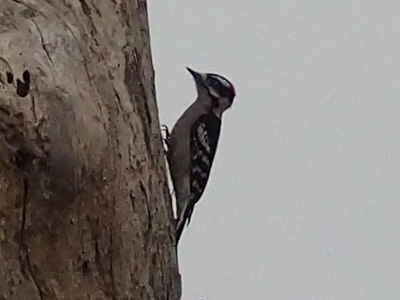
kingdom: Animalia
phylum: Chordata
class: Aves
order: Piciformes
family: Picidae
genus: Dryobates
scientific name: Dryobates pubescens
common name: Downy woodpecker
